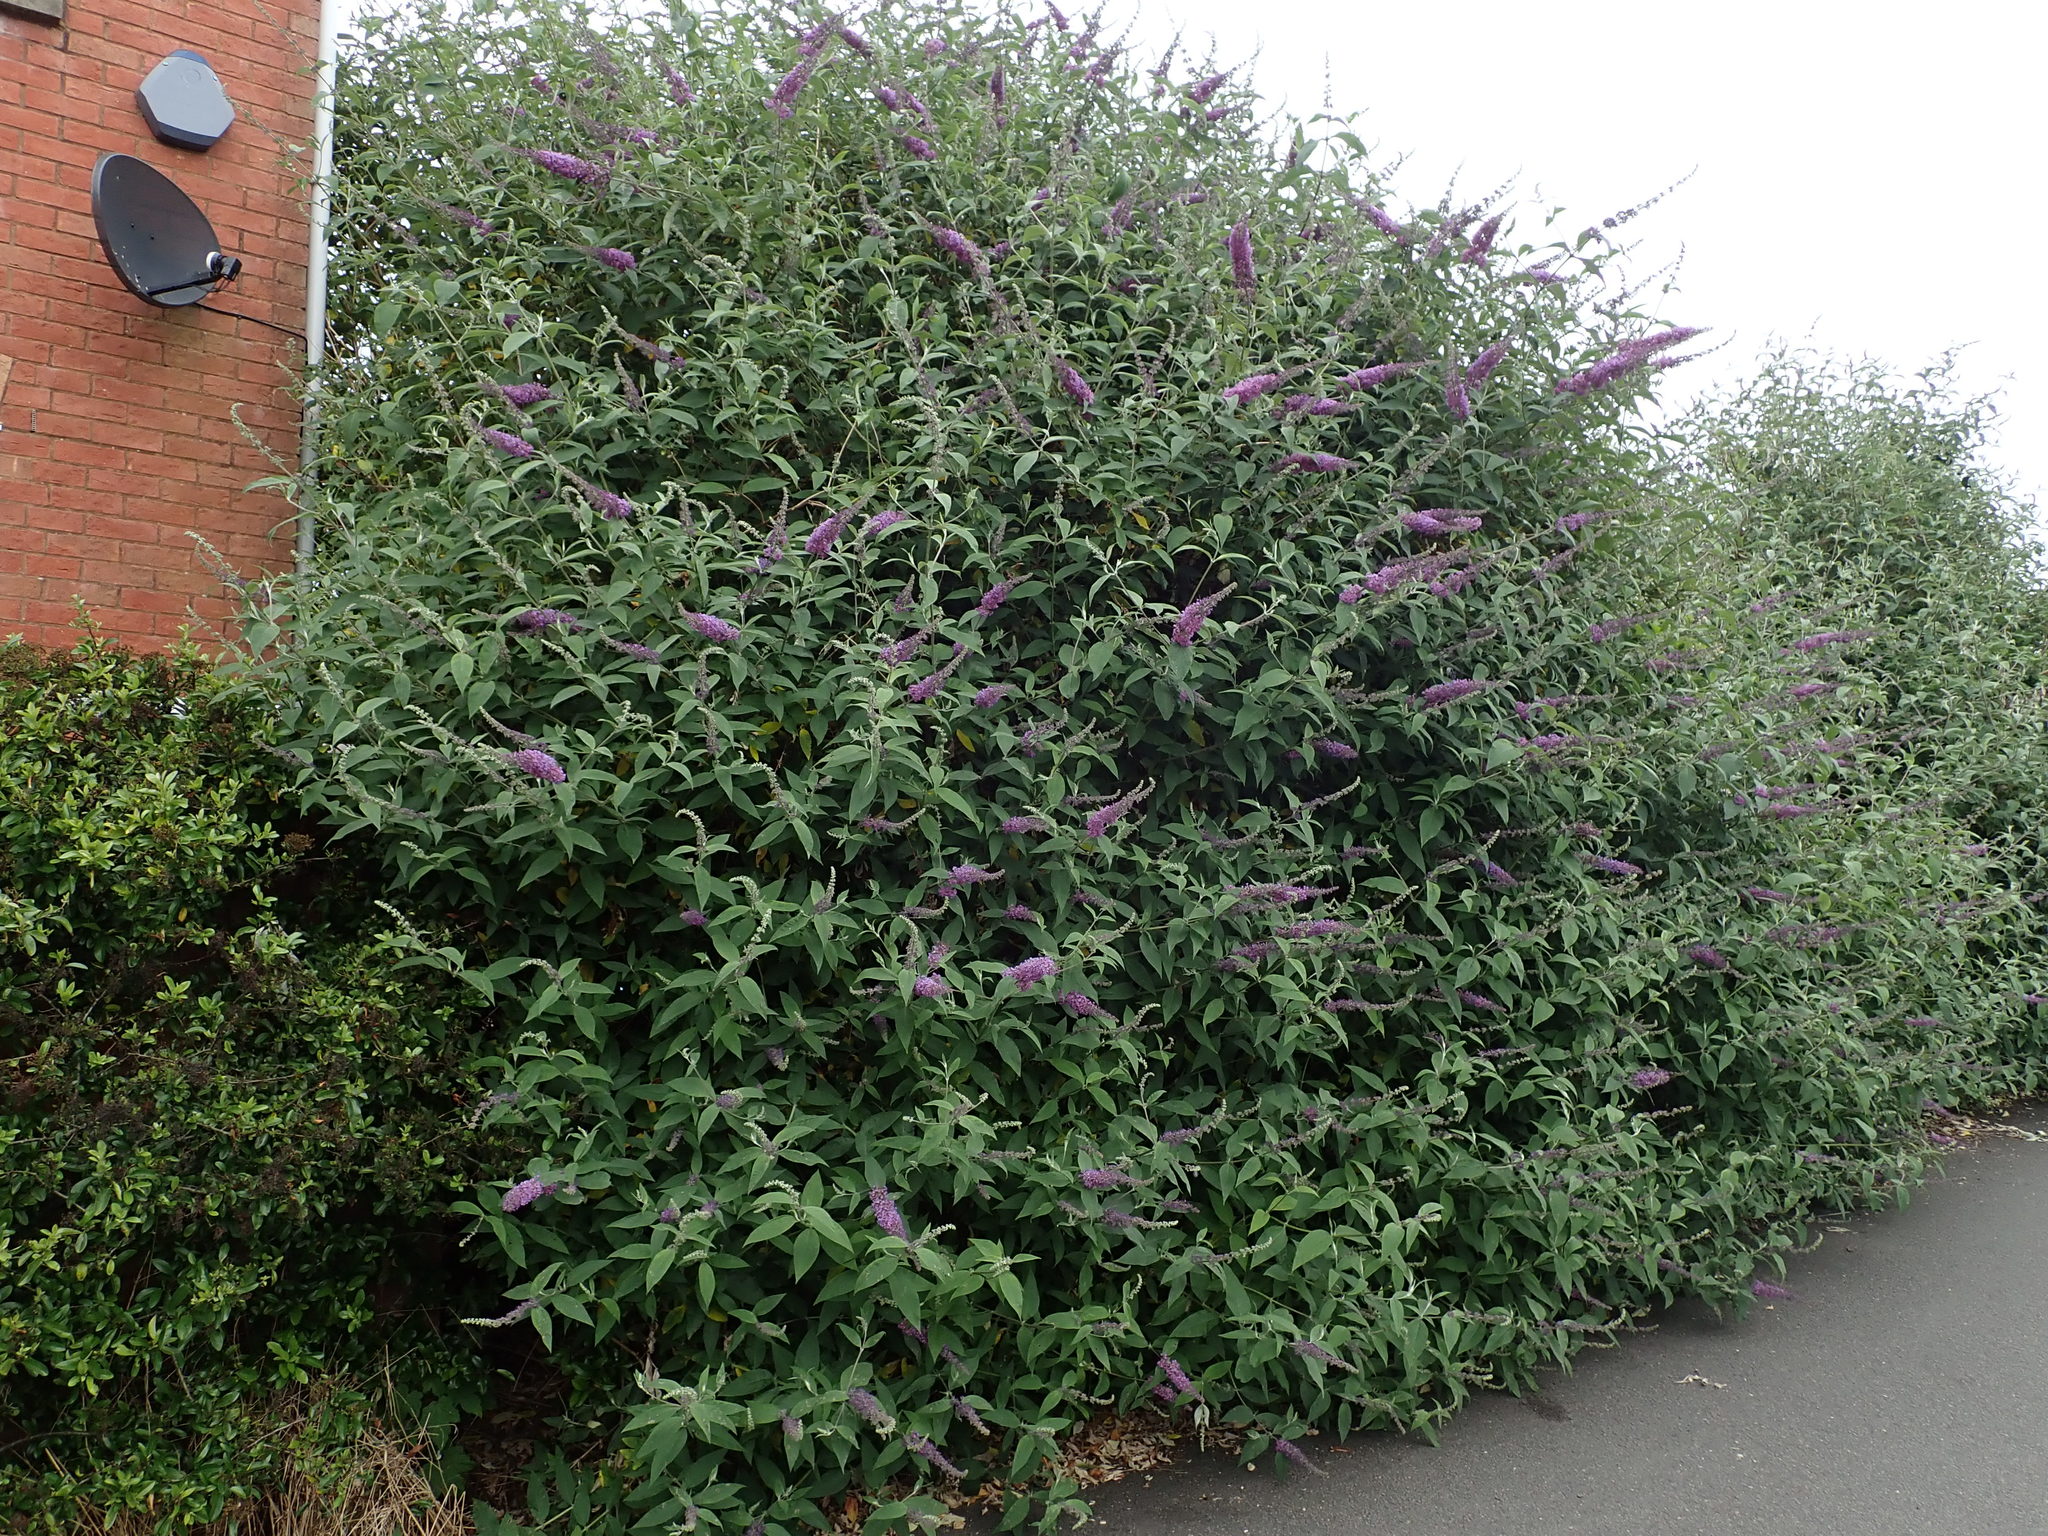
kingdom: Plantae
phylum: Tracheophyta
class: Magnoliopsida
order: Lamiales
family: Scrophulariaceae
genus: Buddleja
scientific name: Buddleja davidii
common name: Butterfly-bush
